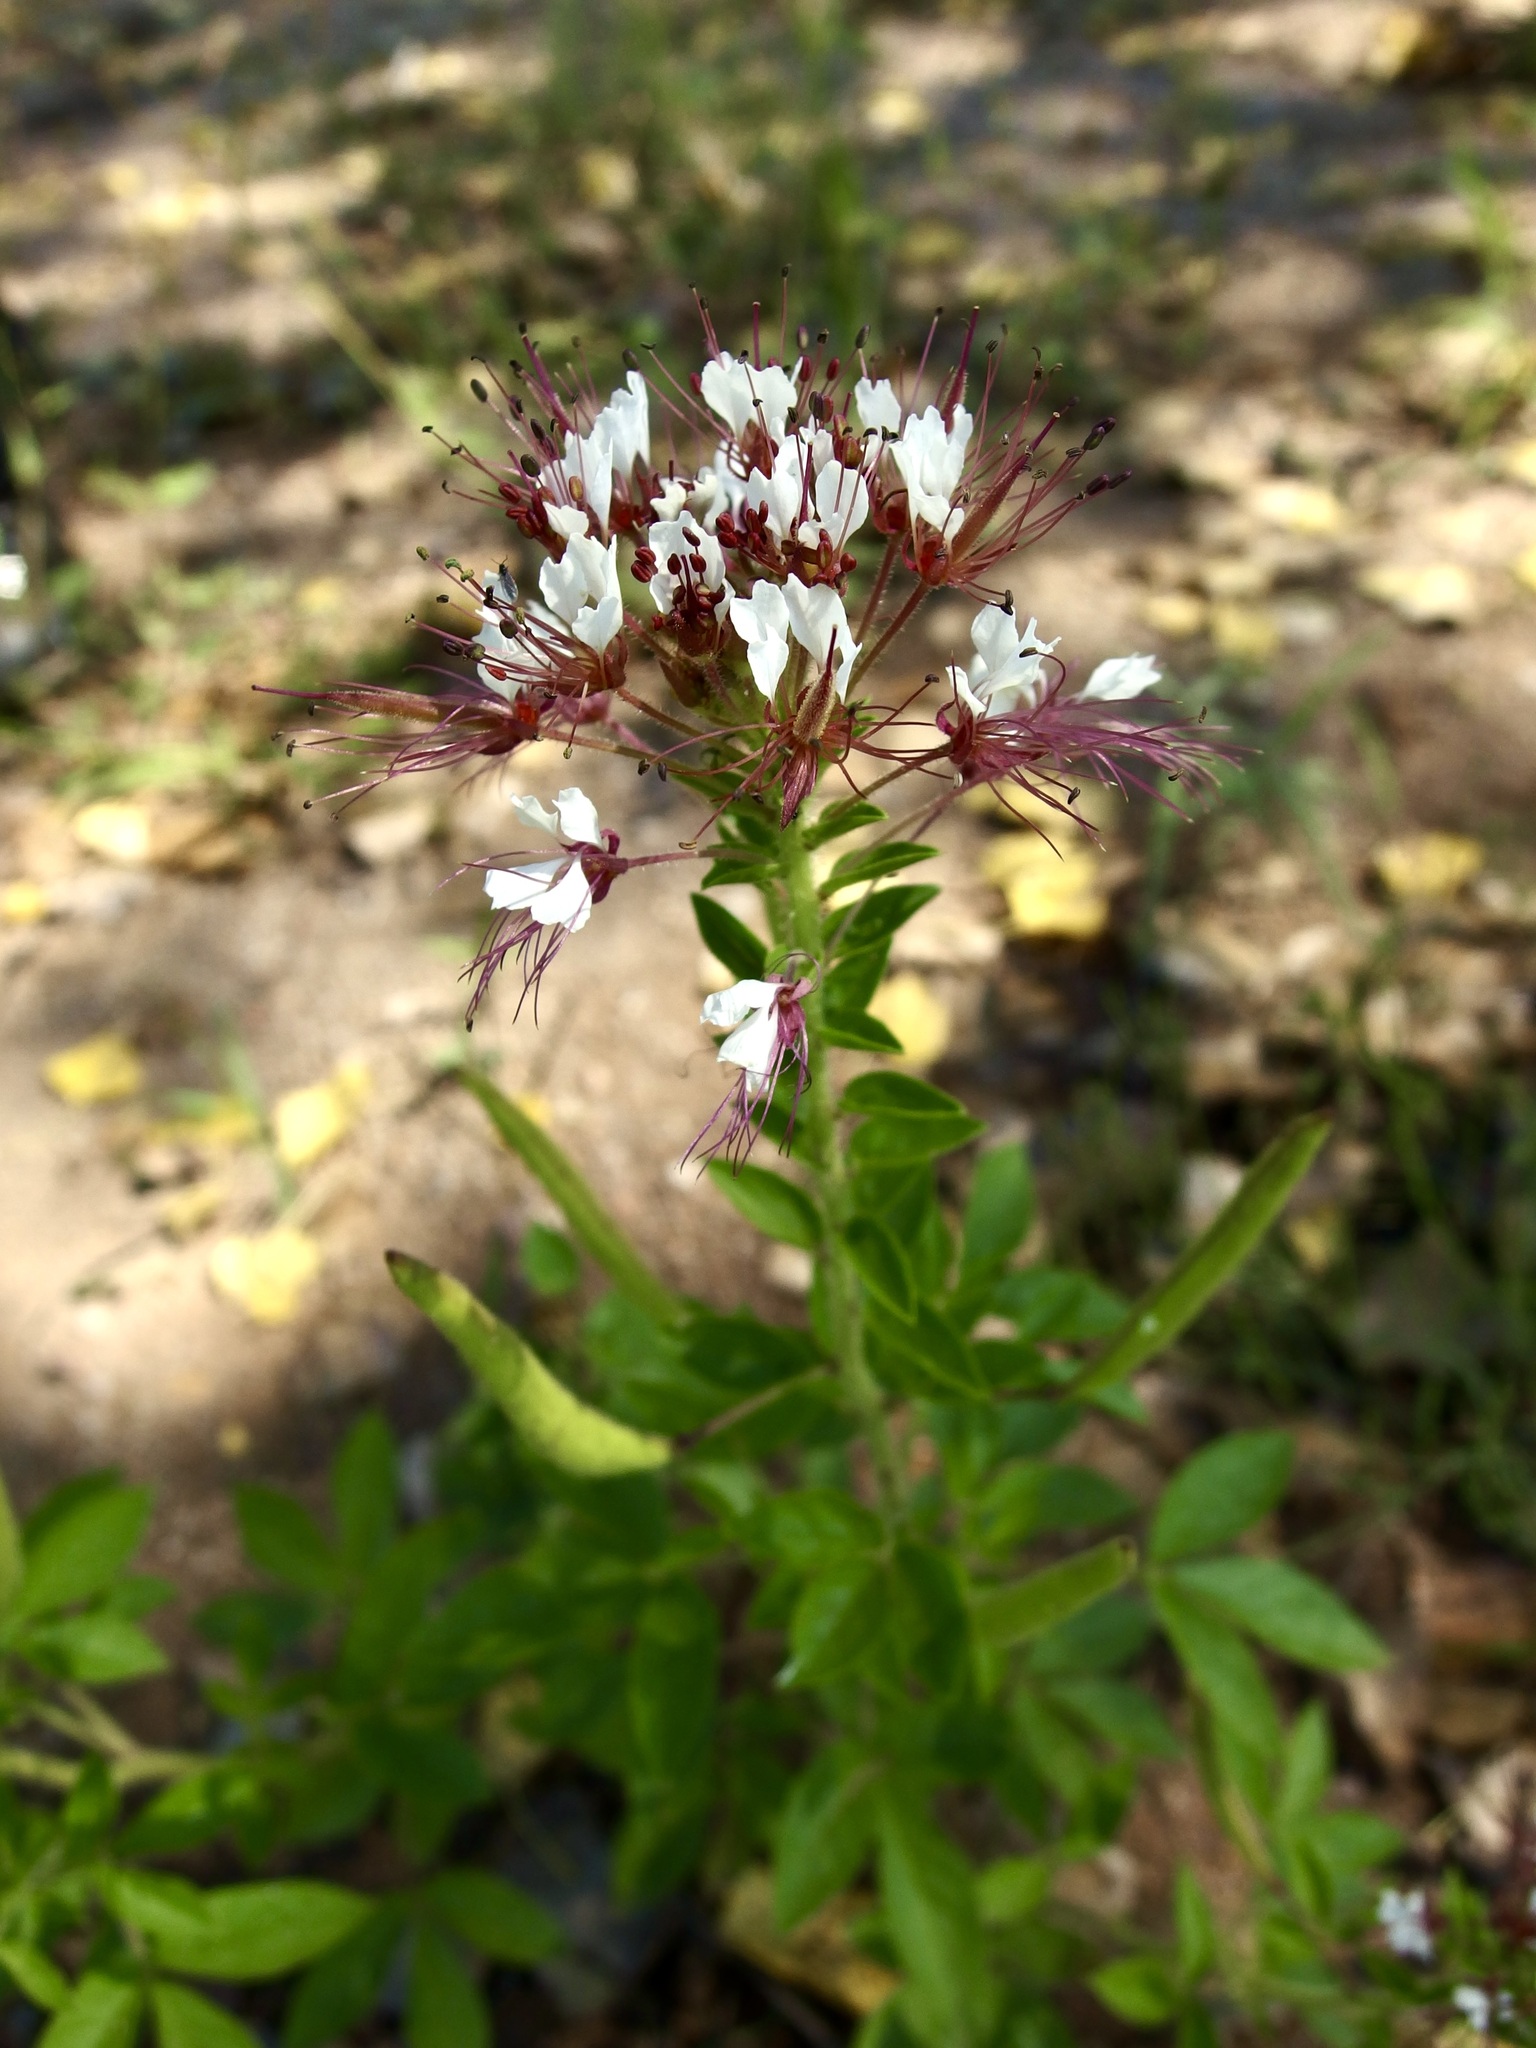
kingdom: Plantae
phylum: Tracheophyta
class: Magnoliopsida
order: Brassicales
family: Cleomaceae
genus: Polanisia
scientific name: Polanisia dodecandra
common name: Clammyweed
